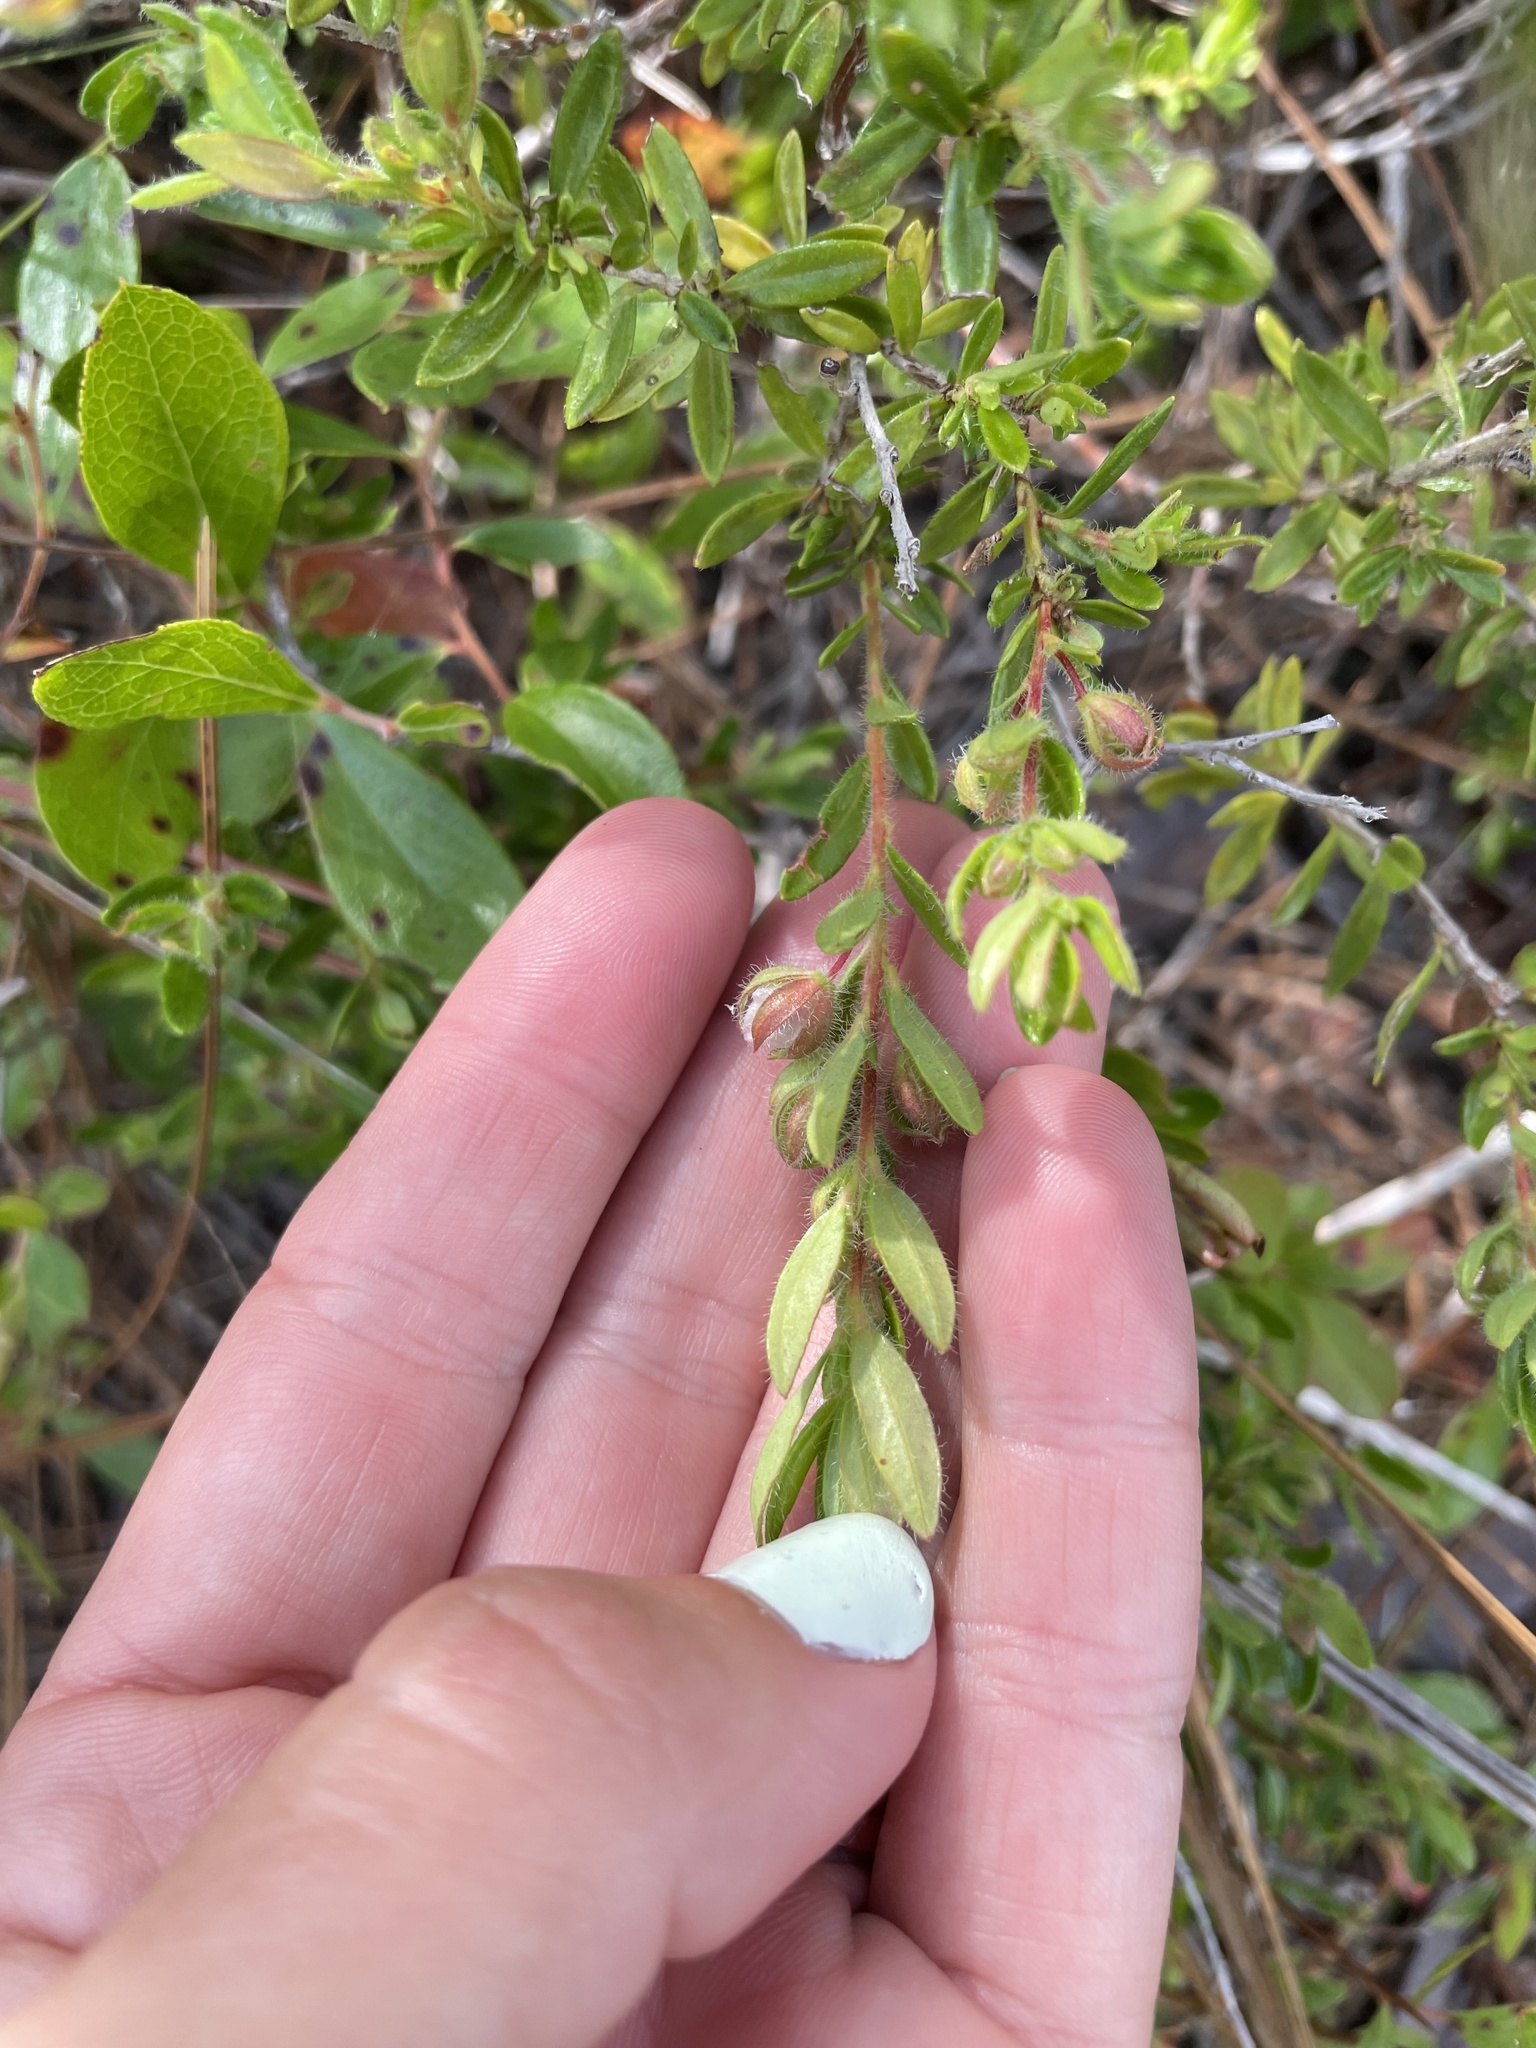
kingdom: Plantae
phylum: Tracheophyta
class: Magnoliopsida
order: Ericales
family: Ericaceae
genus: Kalmia
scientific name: Kalmia hirsuta
